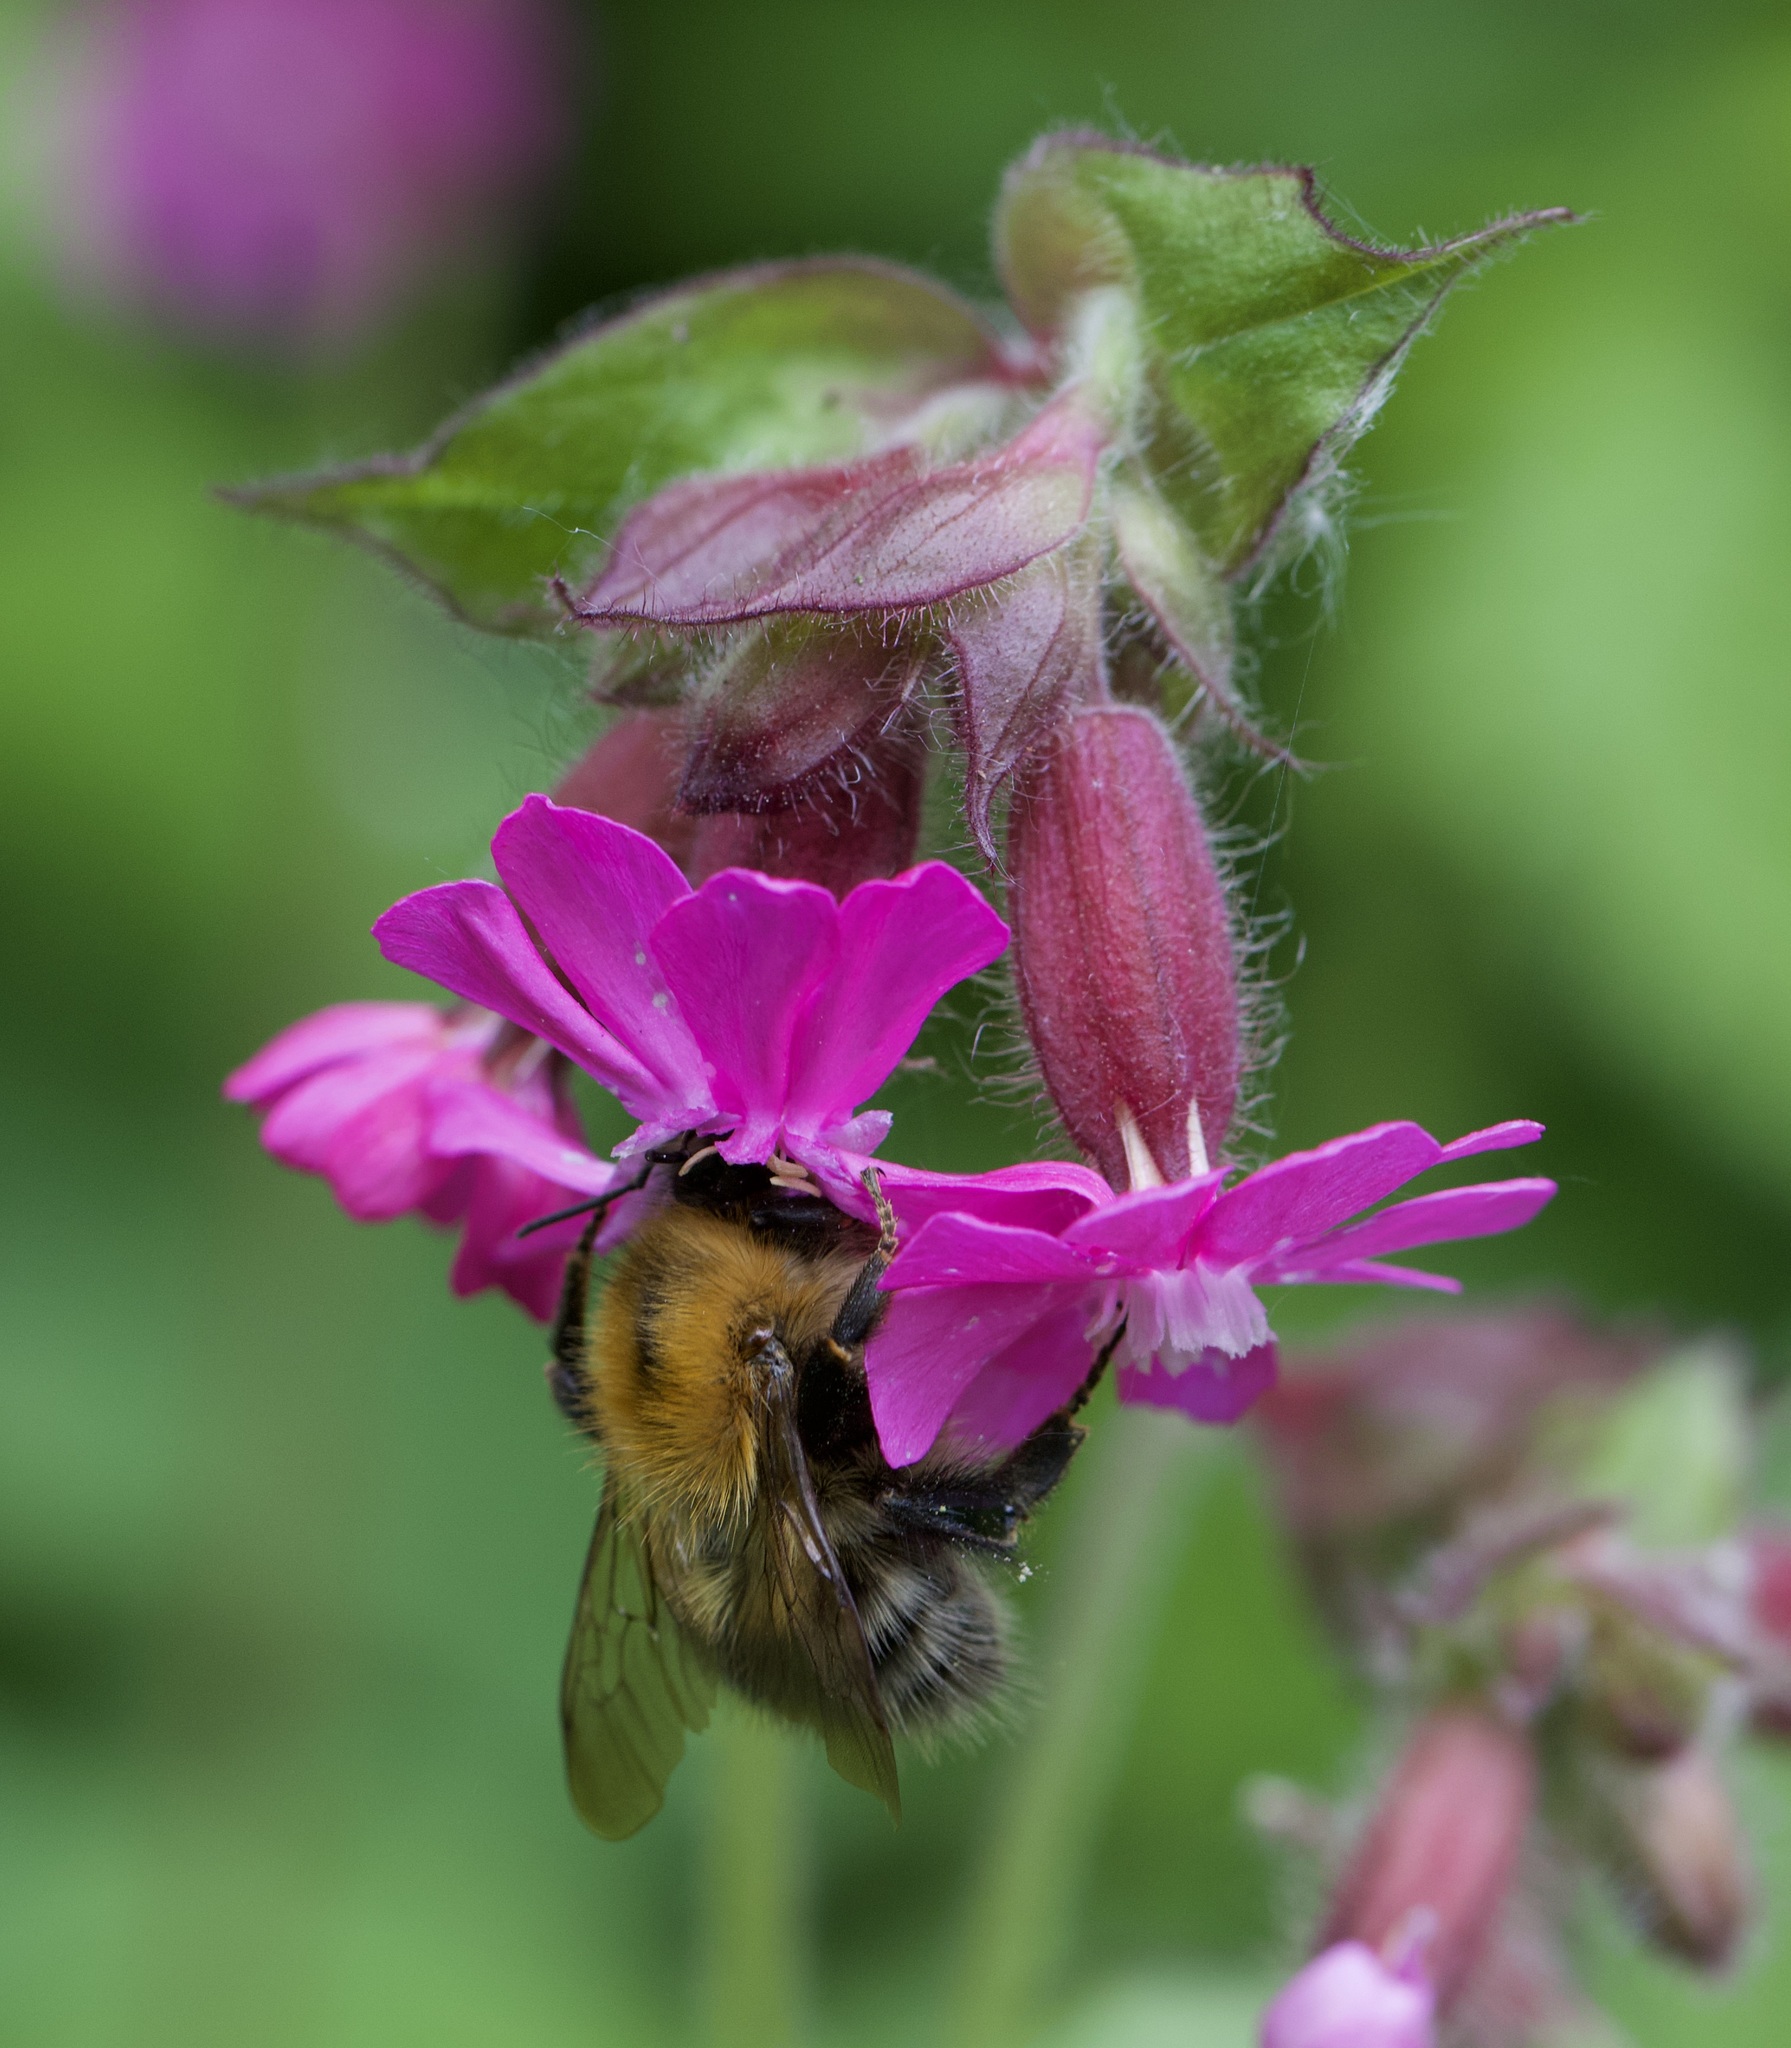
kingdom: Animalia
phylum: Arthropoda
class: Insecta
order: Hymenoptera
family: Apidae
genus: Bombus
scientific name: Bombus pascuorum
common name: Common carder bee
